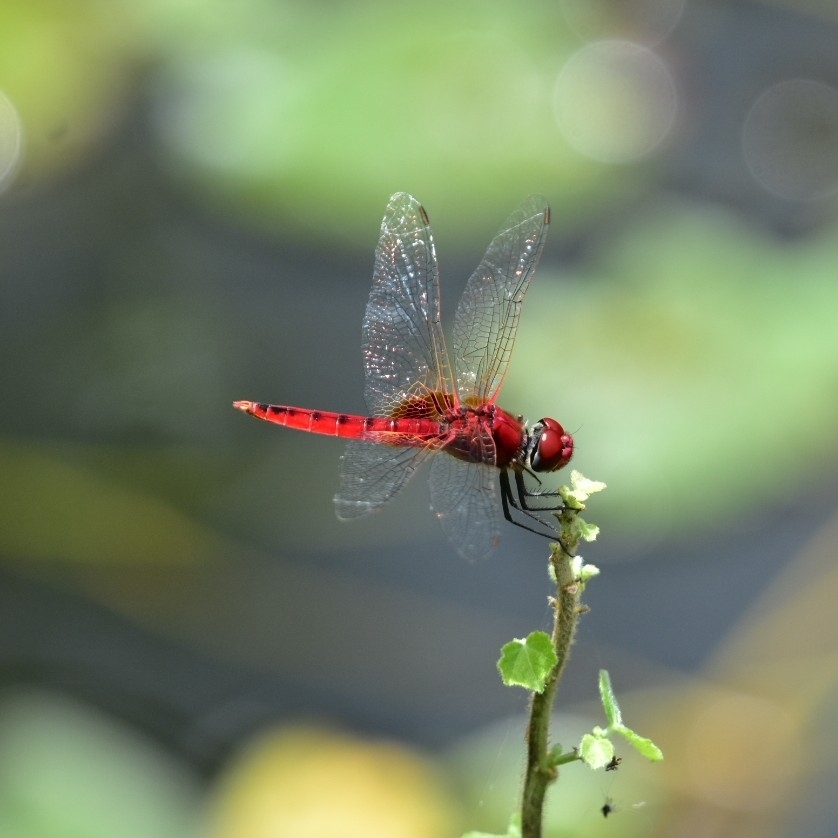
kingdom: Animalia
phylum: Arthropoda
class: Insecta
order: Odonata
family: Libellulidae
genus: Urothemis
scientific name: Urothemis signata
